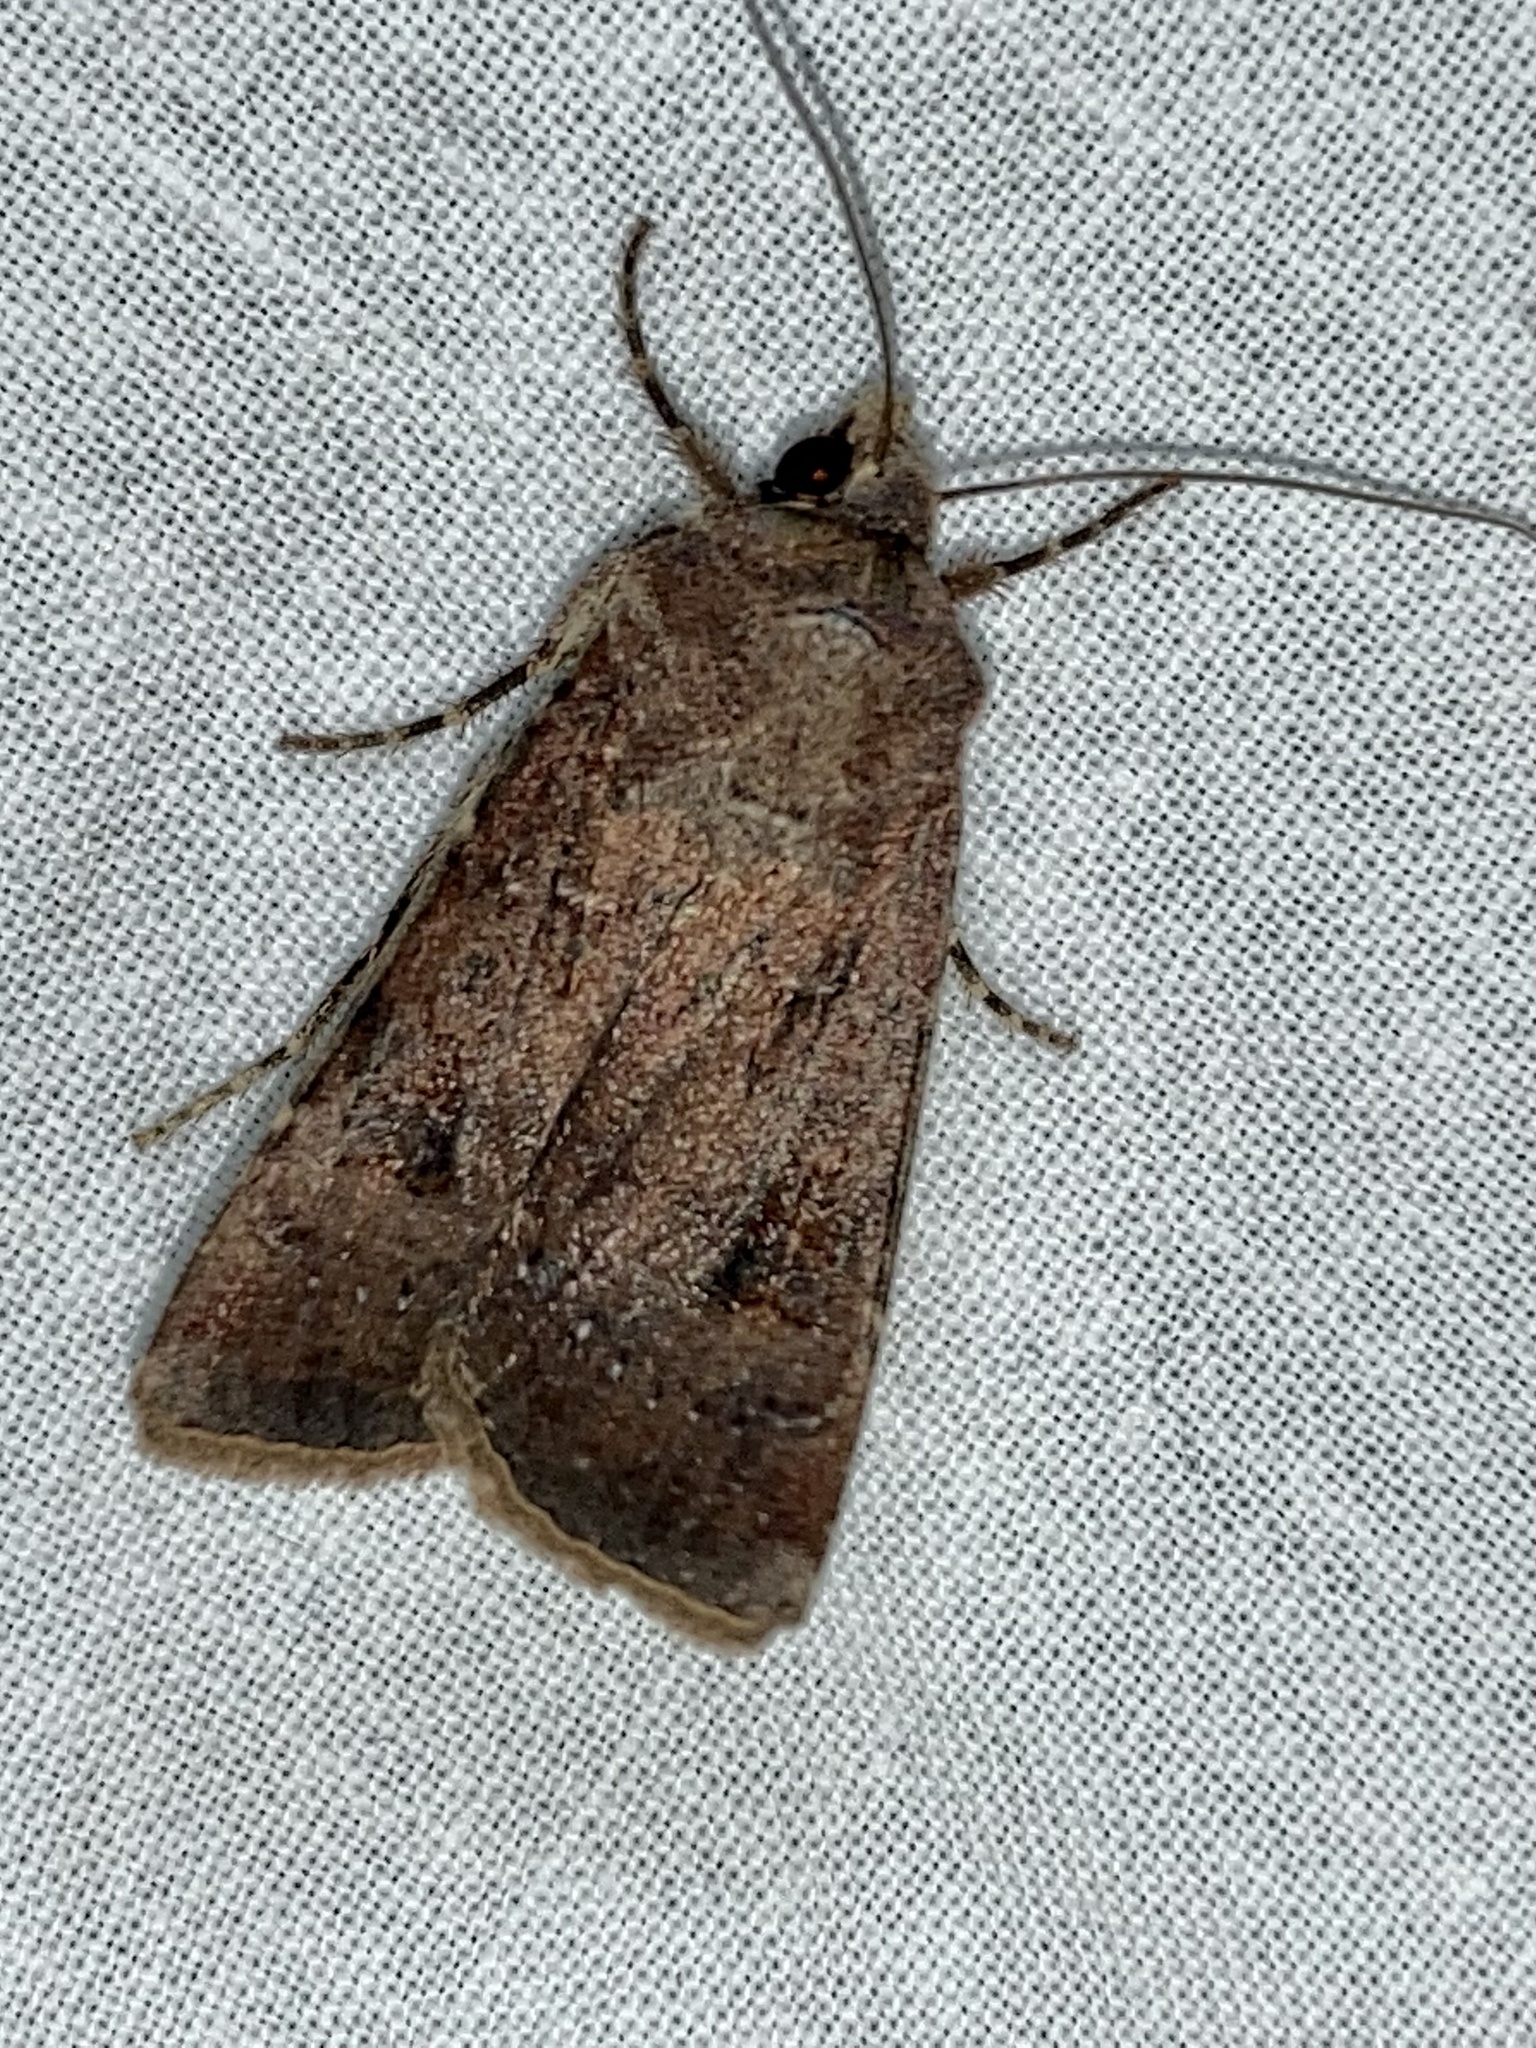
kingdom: Animalia
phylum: Arthropoda
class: Insecta
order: Lepidoptera
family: Noctuidae
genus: Agrotis
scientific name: Agrotis trux
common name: Crescent dart
